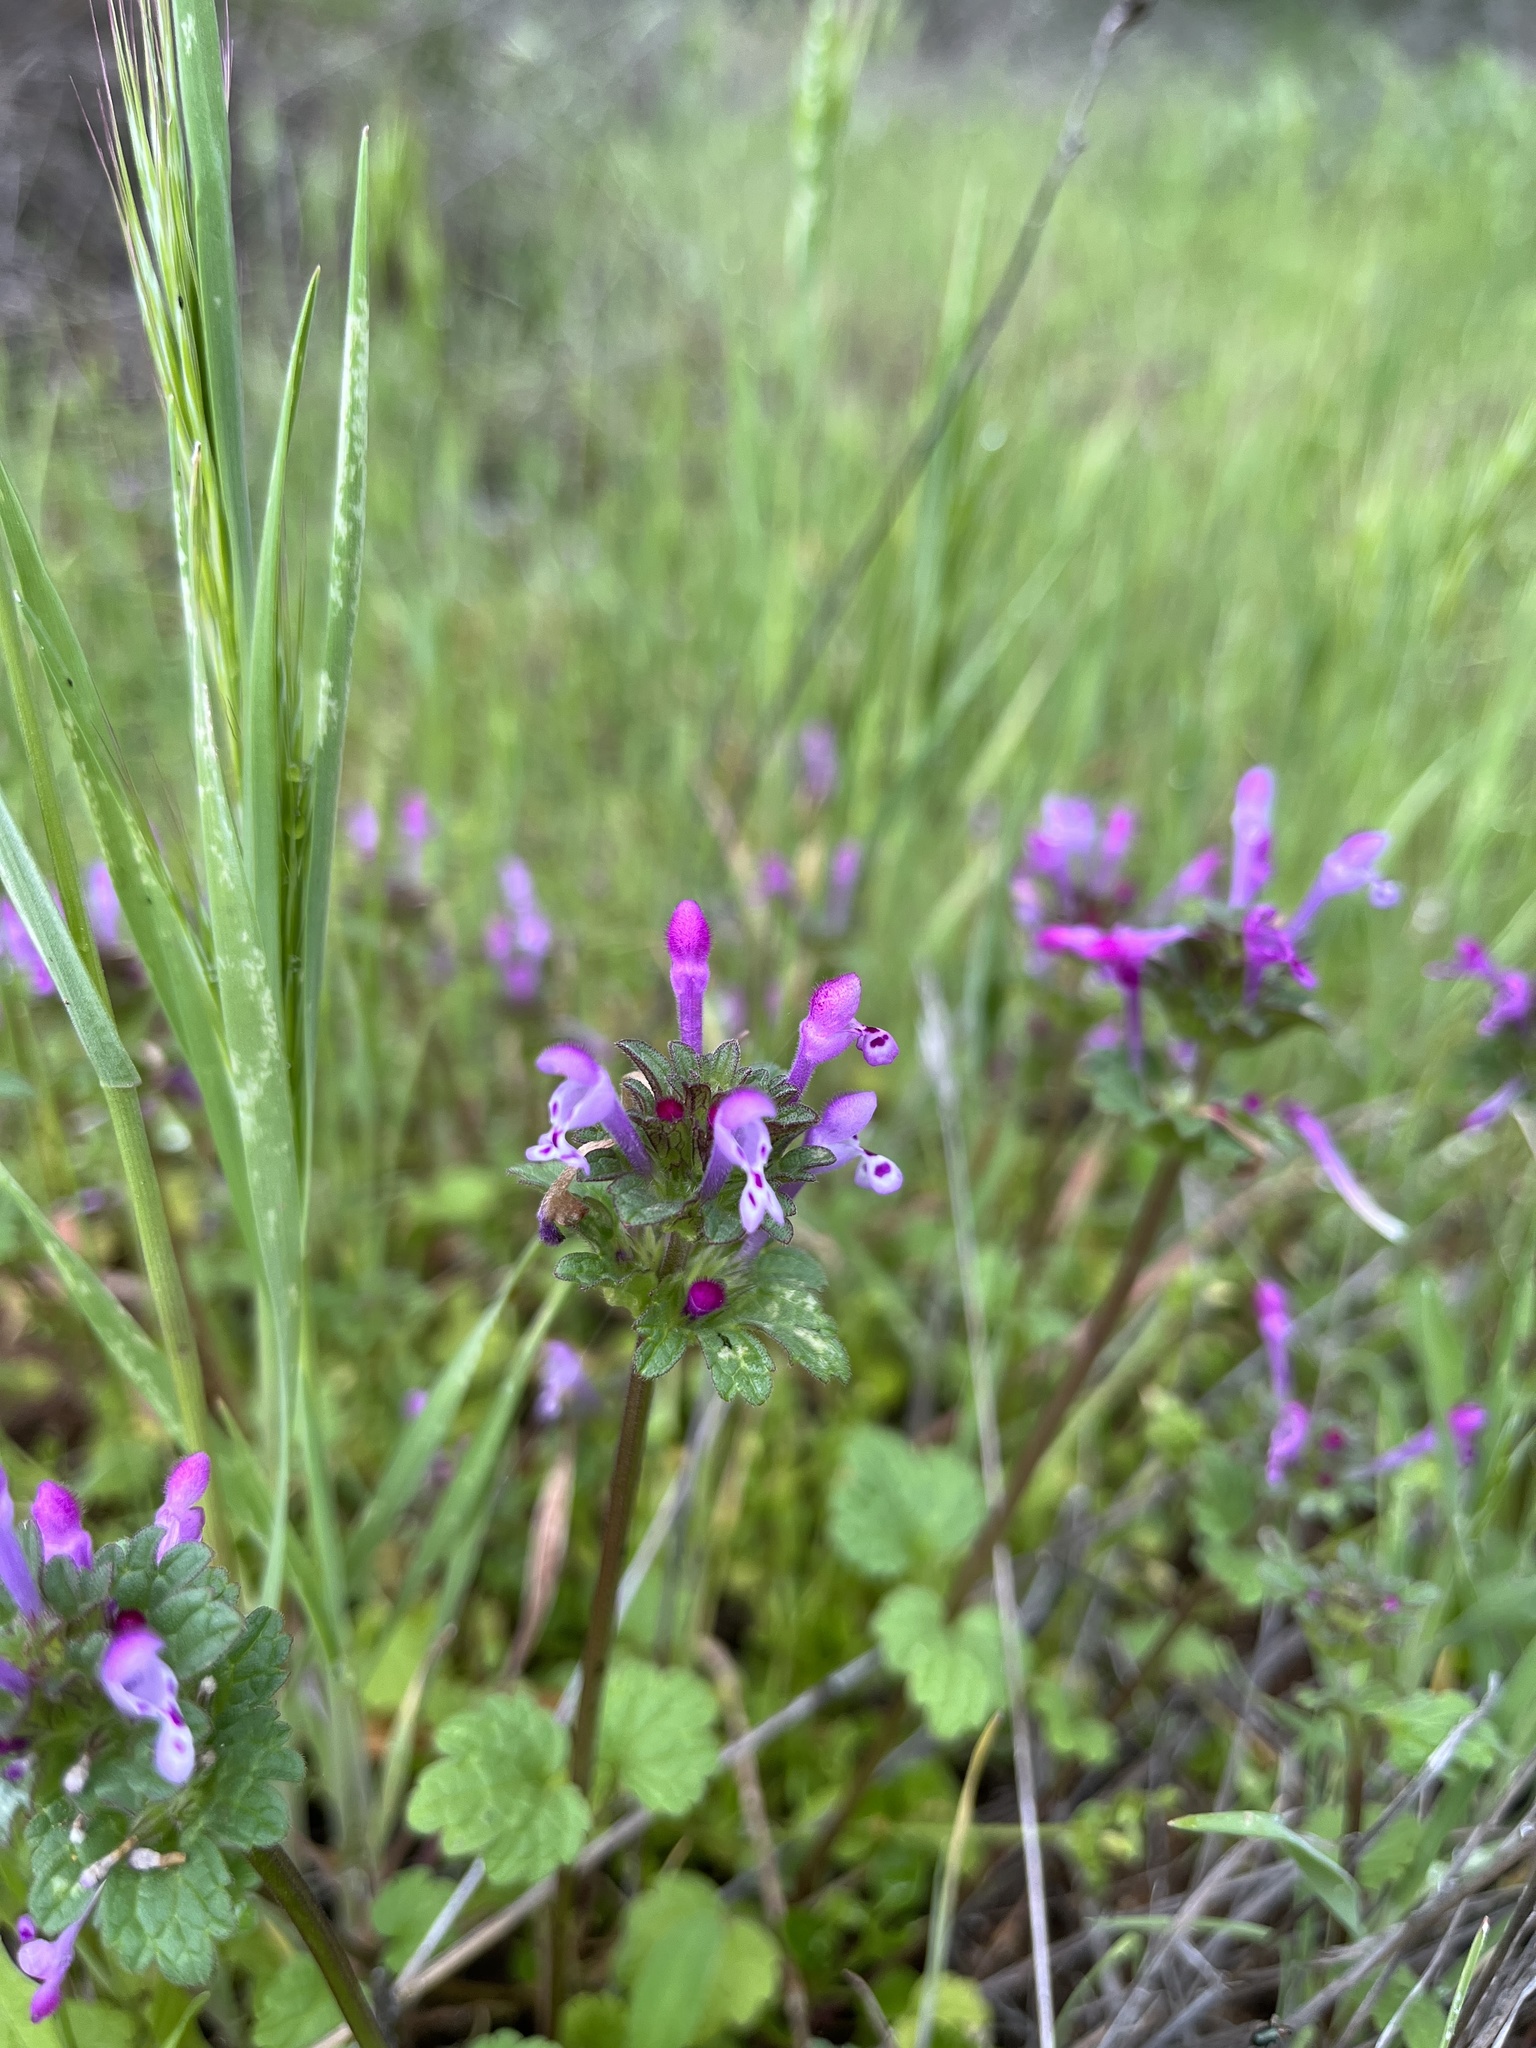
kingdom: Plantae
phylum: Tracheophyta
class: Magnoliopsida
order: Lamiales
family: Lamiaceae
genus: Lamium
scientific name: Lamium amplexicaule
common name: Henbit dead-nettle
